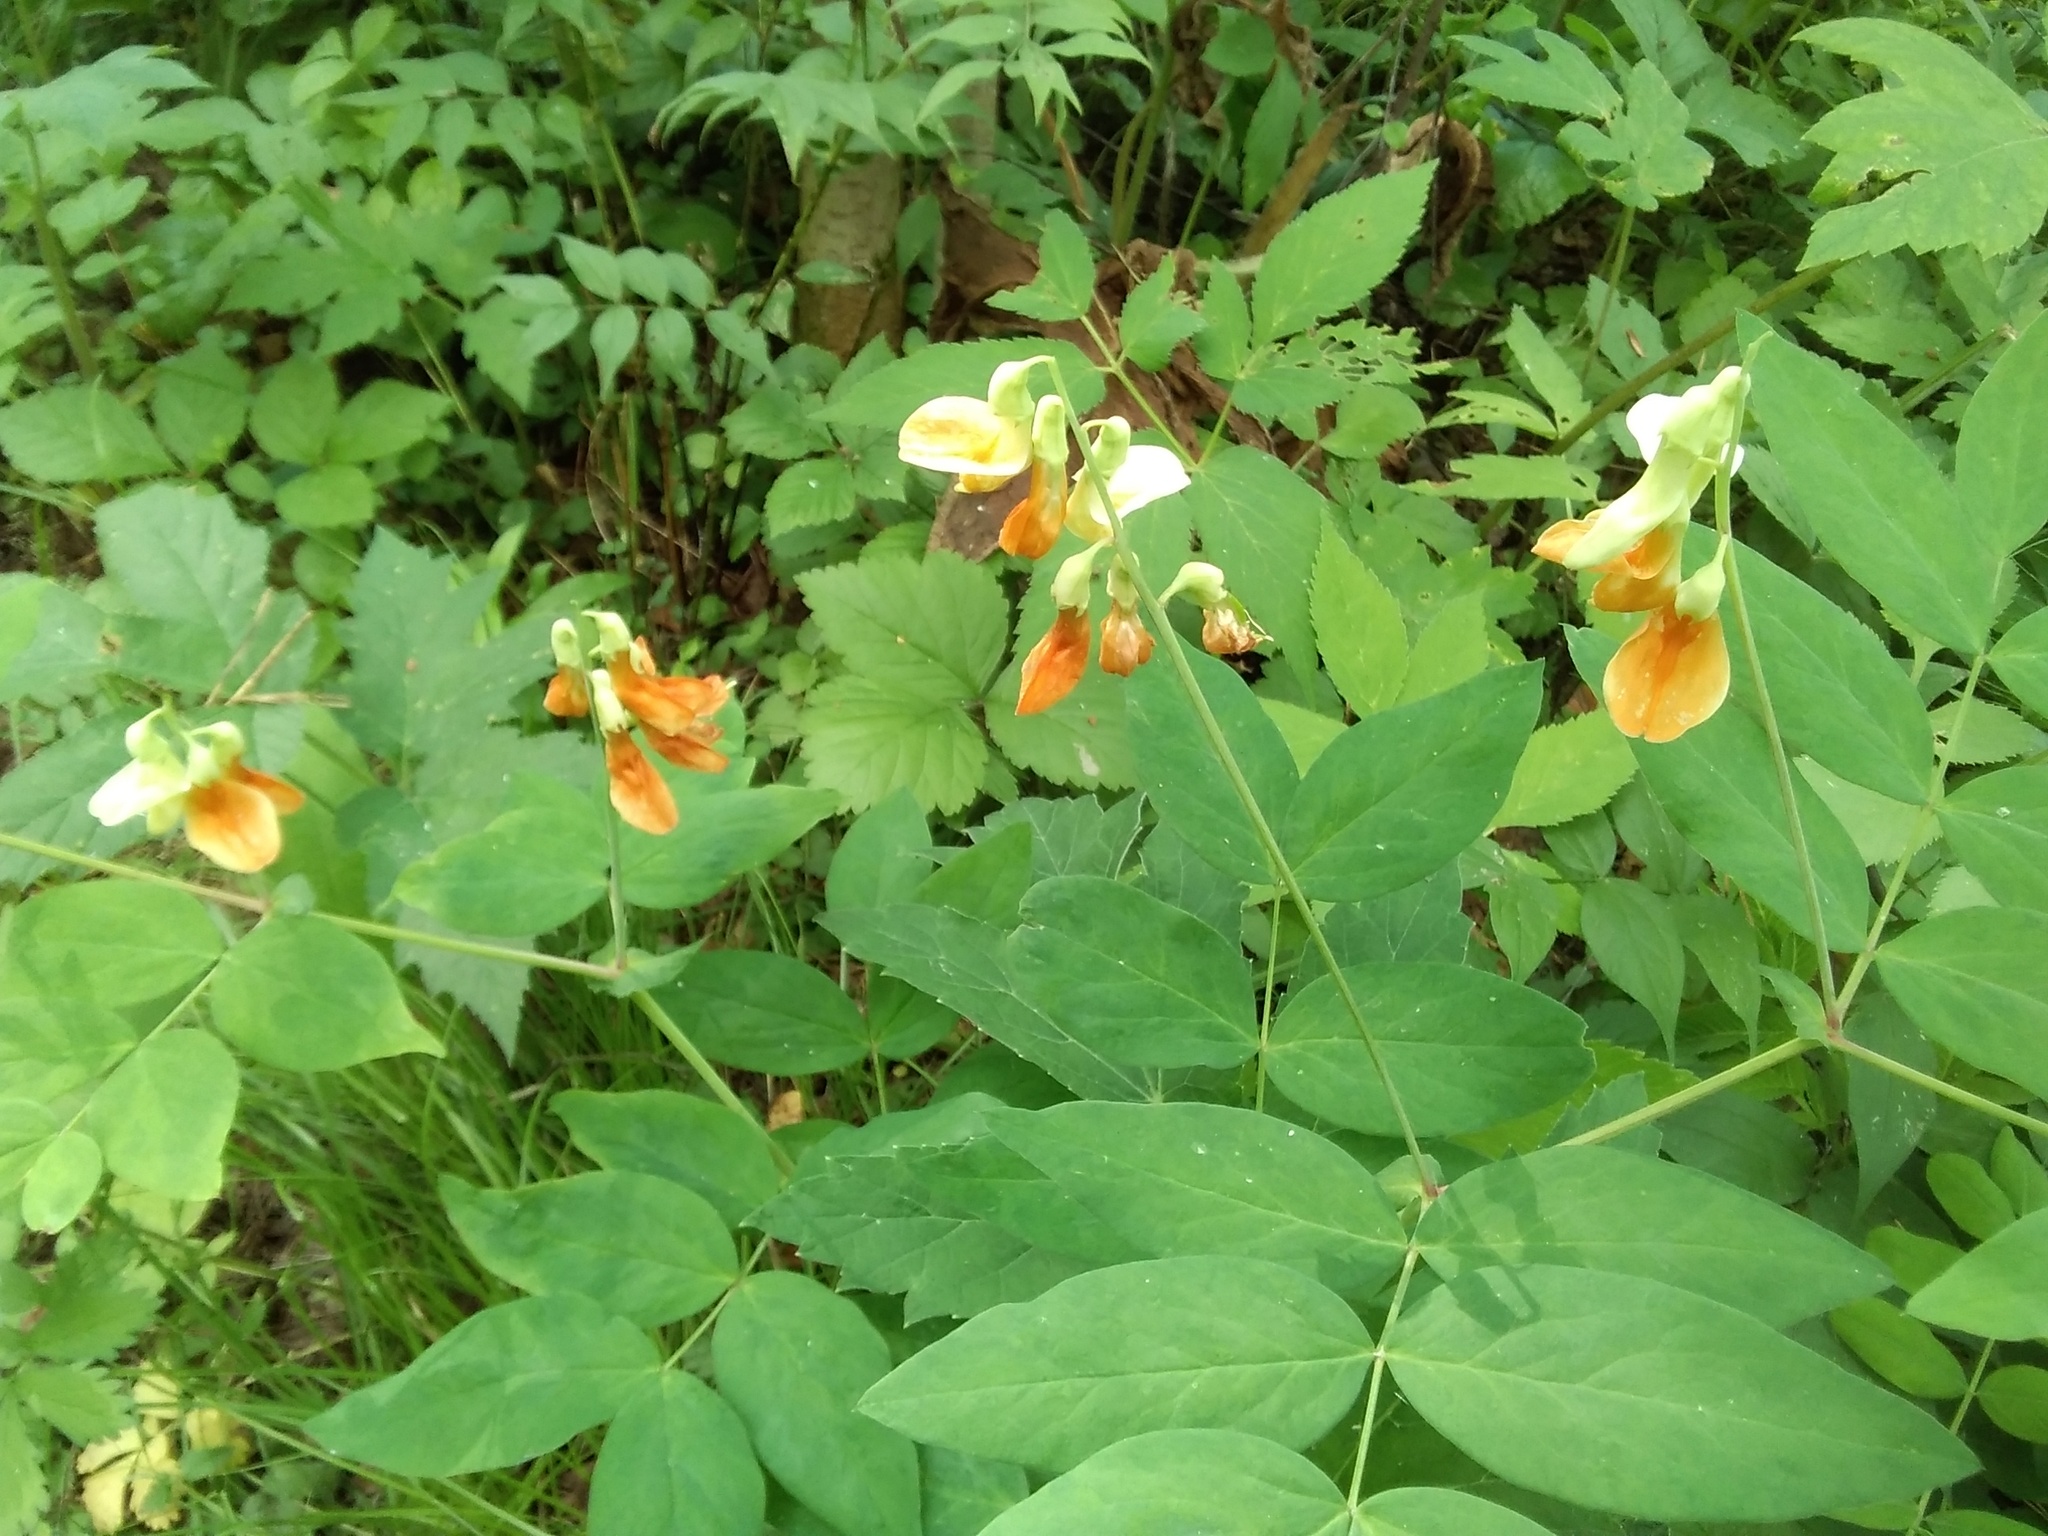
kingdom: Plantae
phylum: Tracheophyta
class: Magnoliopsida
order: Fabales
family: Fabaceae
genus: Lathyrus
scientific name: Lathyrus gmelinii
